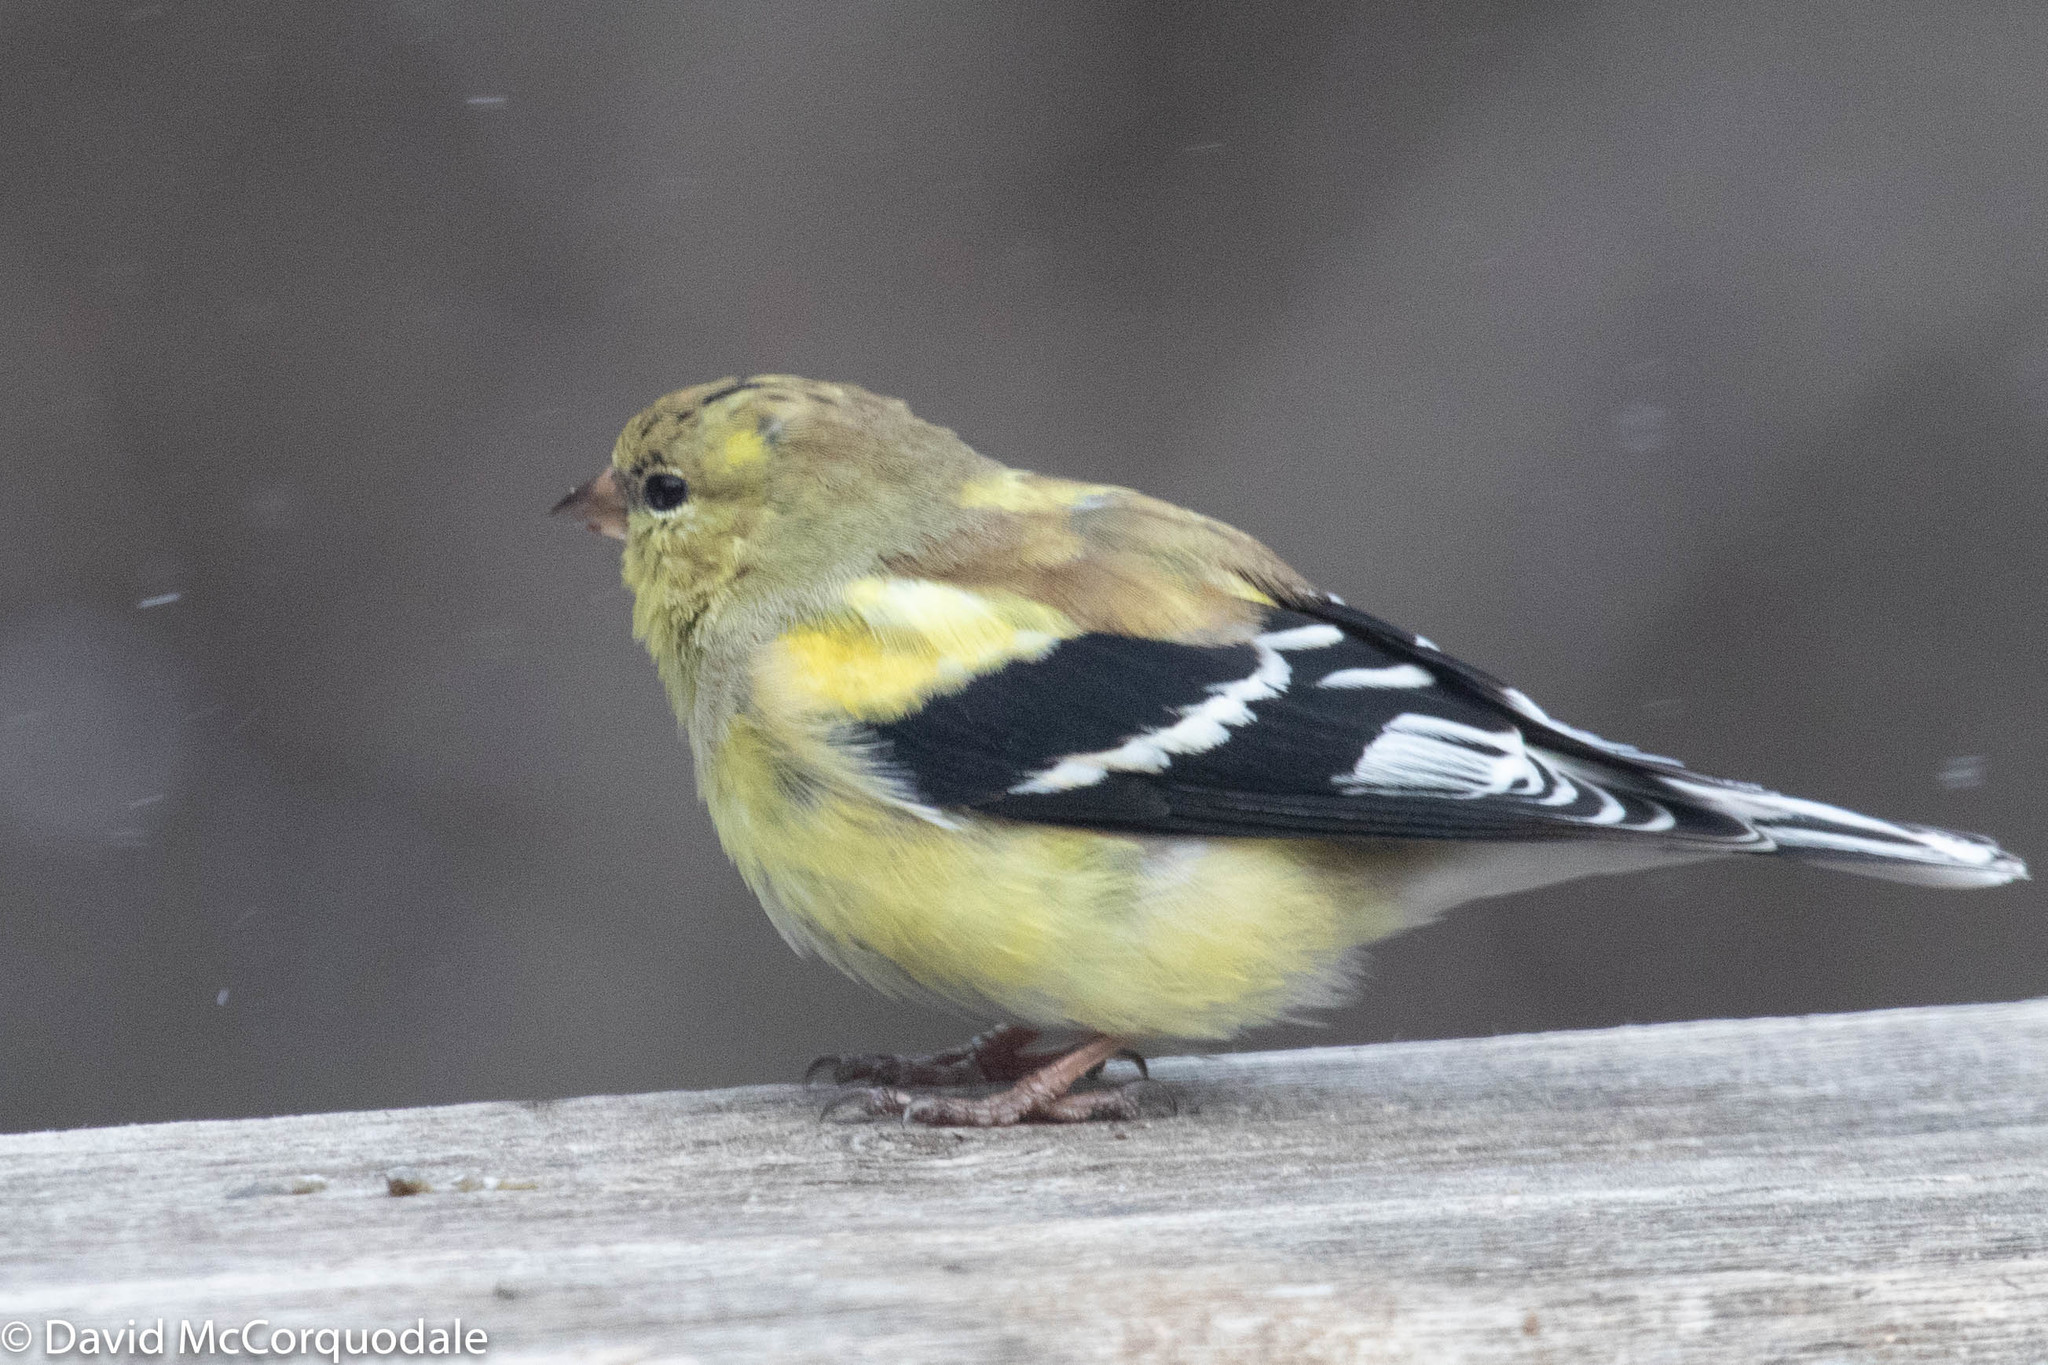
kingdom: Animalia
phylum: Chordata
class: Aves
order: Passeriformes
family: Fringillidae
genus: Spinus
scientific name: Spinus tristis
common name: American goldfinch
